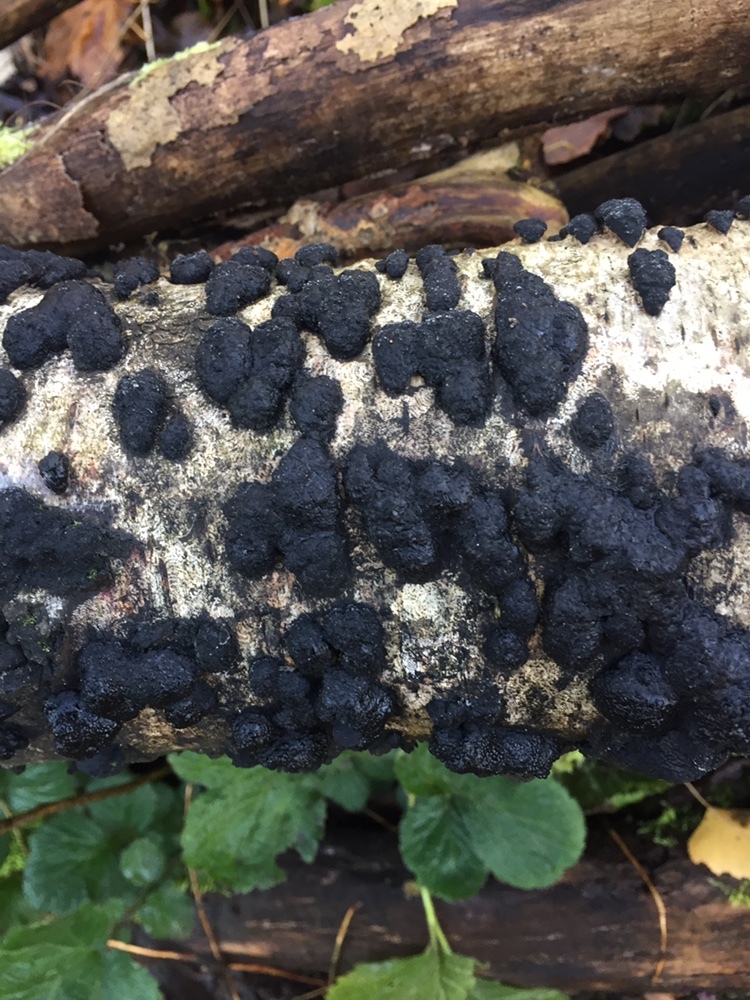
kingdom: Fungi
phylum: Ascomycota
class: Sordariomycetes
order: Xylariales
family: Hypoxylaceae
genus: Jackrogersella
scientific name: Jackrogersella multiformis
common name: Birch woodwart
